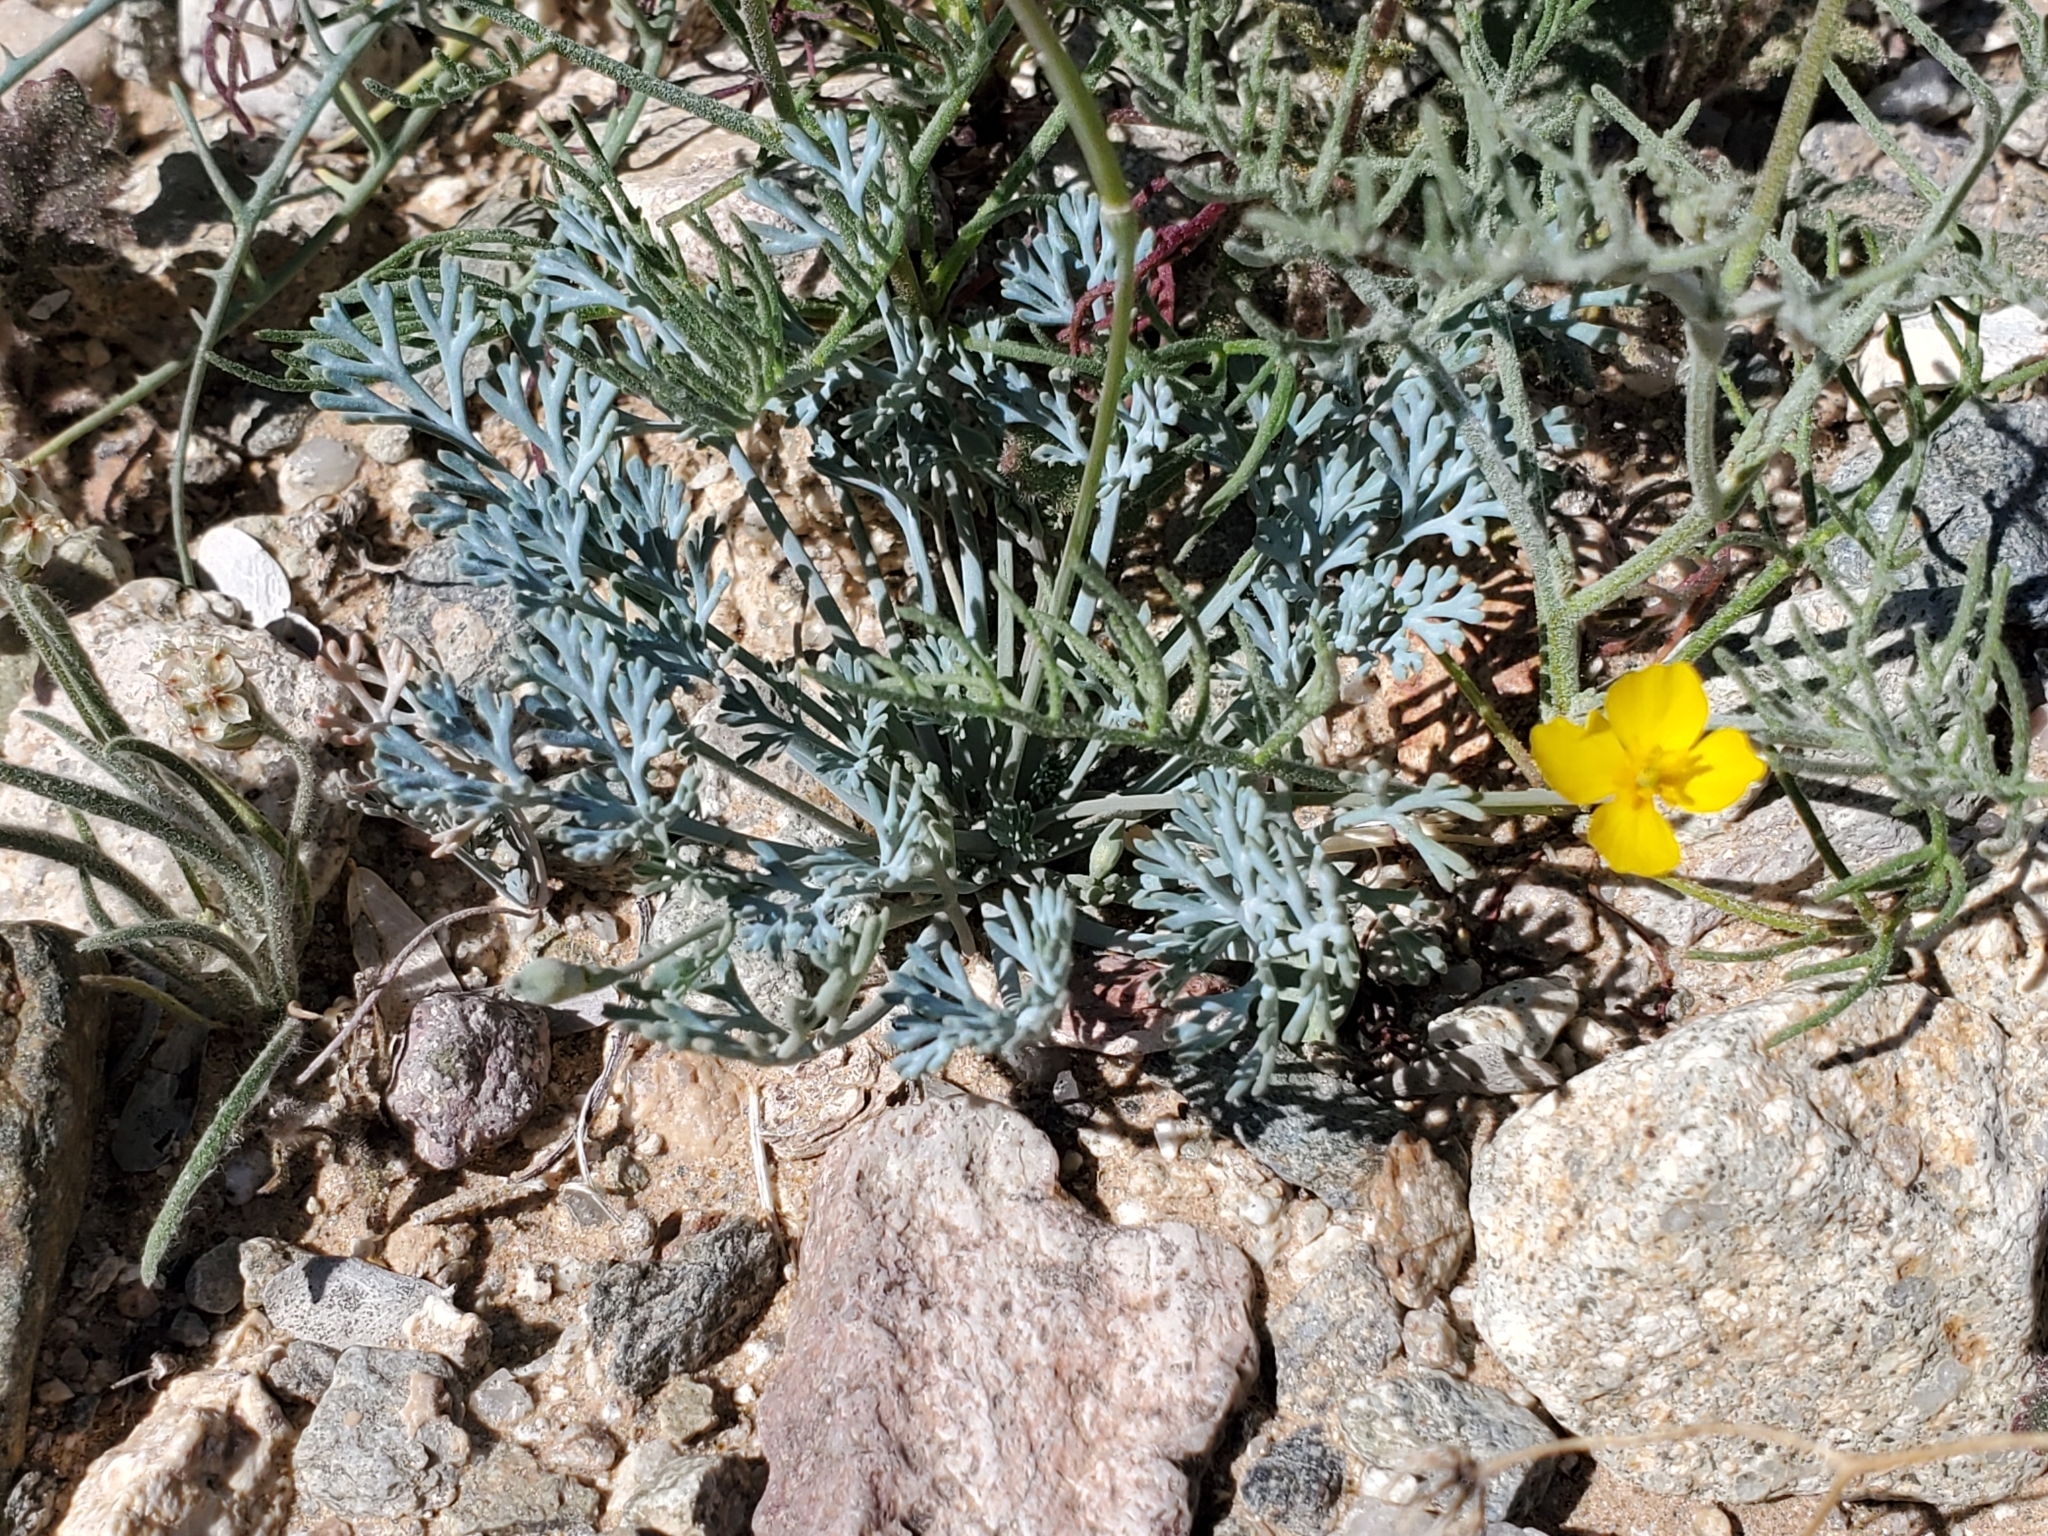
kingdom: Plantae
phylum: Tracheophyta
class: Magnoliopsida
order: Ranunculales
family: Papaveraceae
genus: Eschscholzia
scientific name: Eschscholzia minutiflora
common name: Small-flower california-poppy
